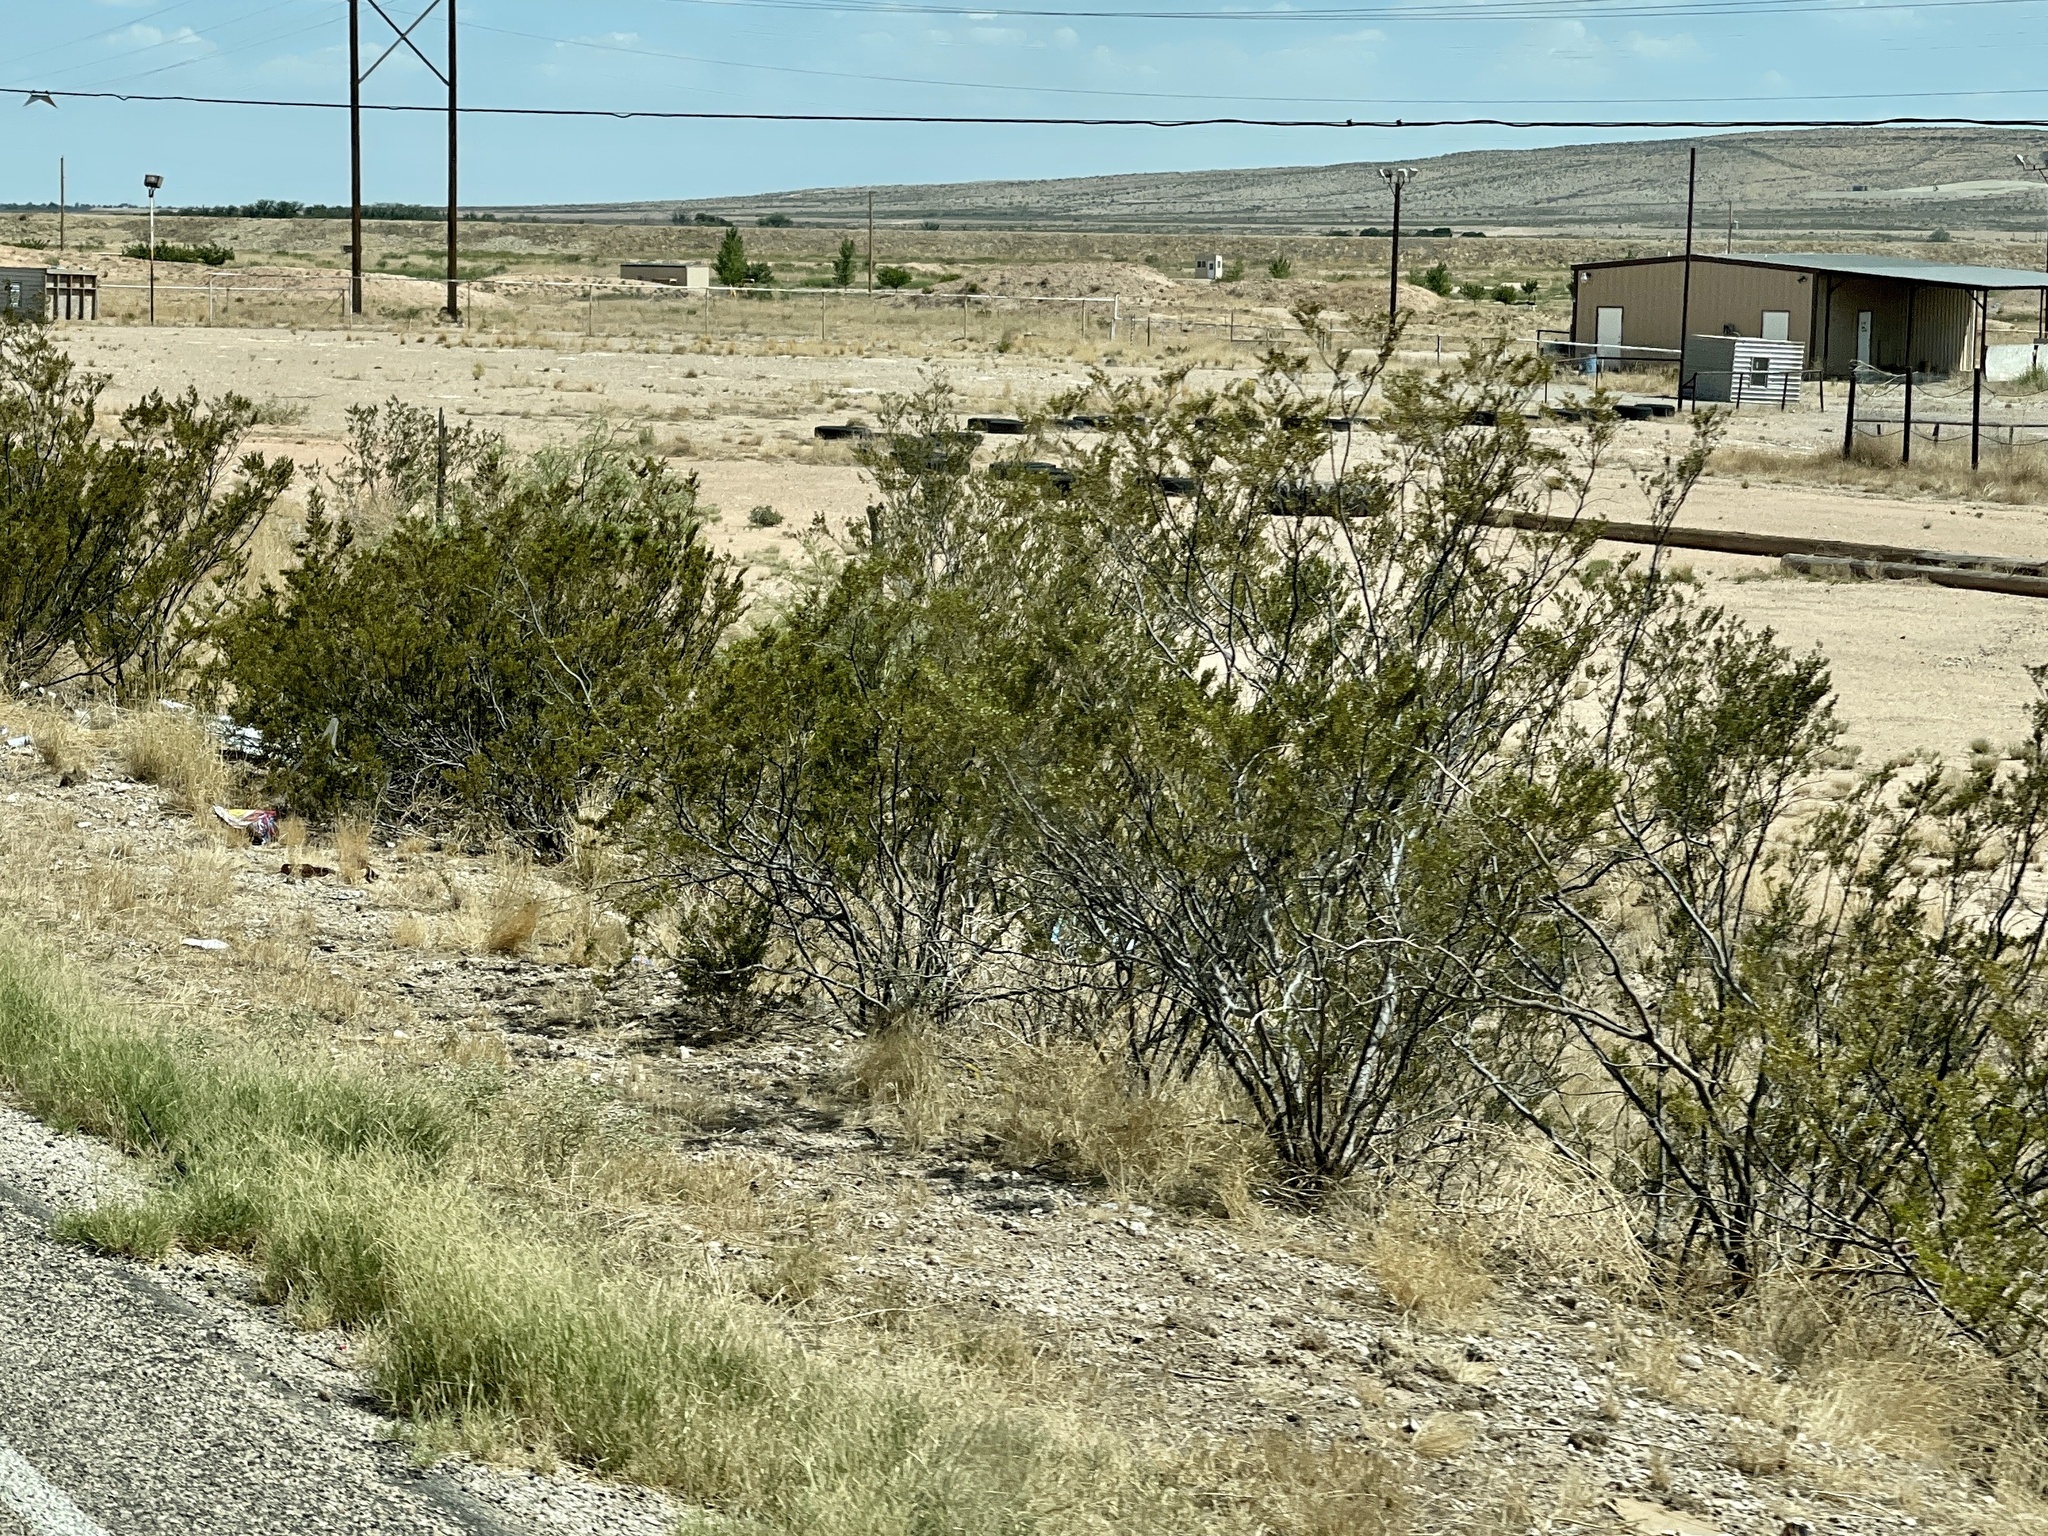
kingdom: Plantae
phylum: Tracheophyta
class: Magnoliopsida
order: Zygophyllales
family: Zygophyllaceae
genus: Larrea
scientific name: Larrea tridentata
